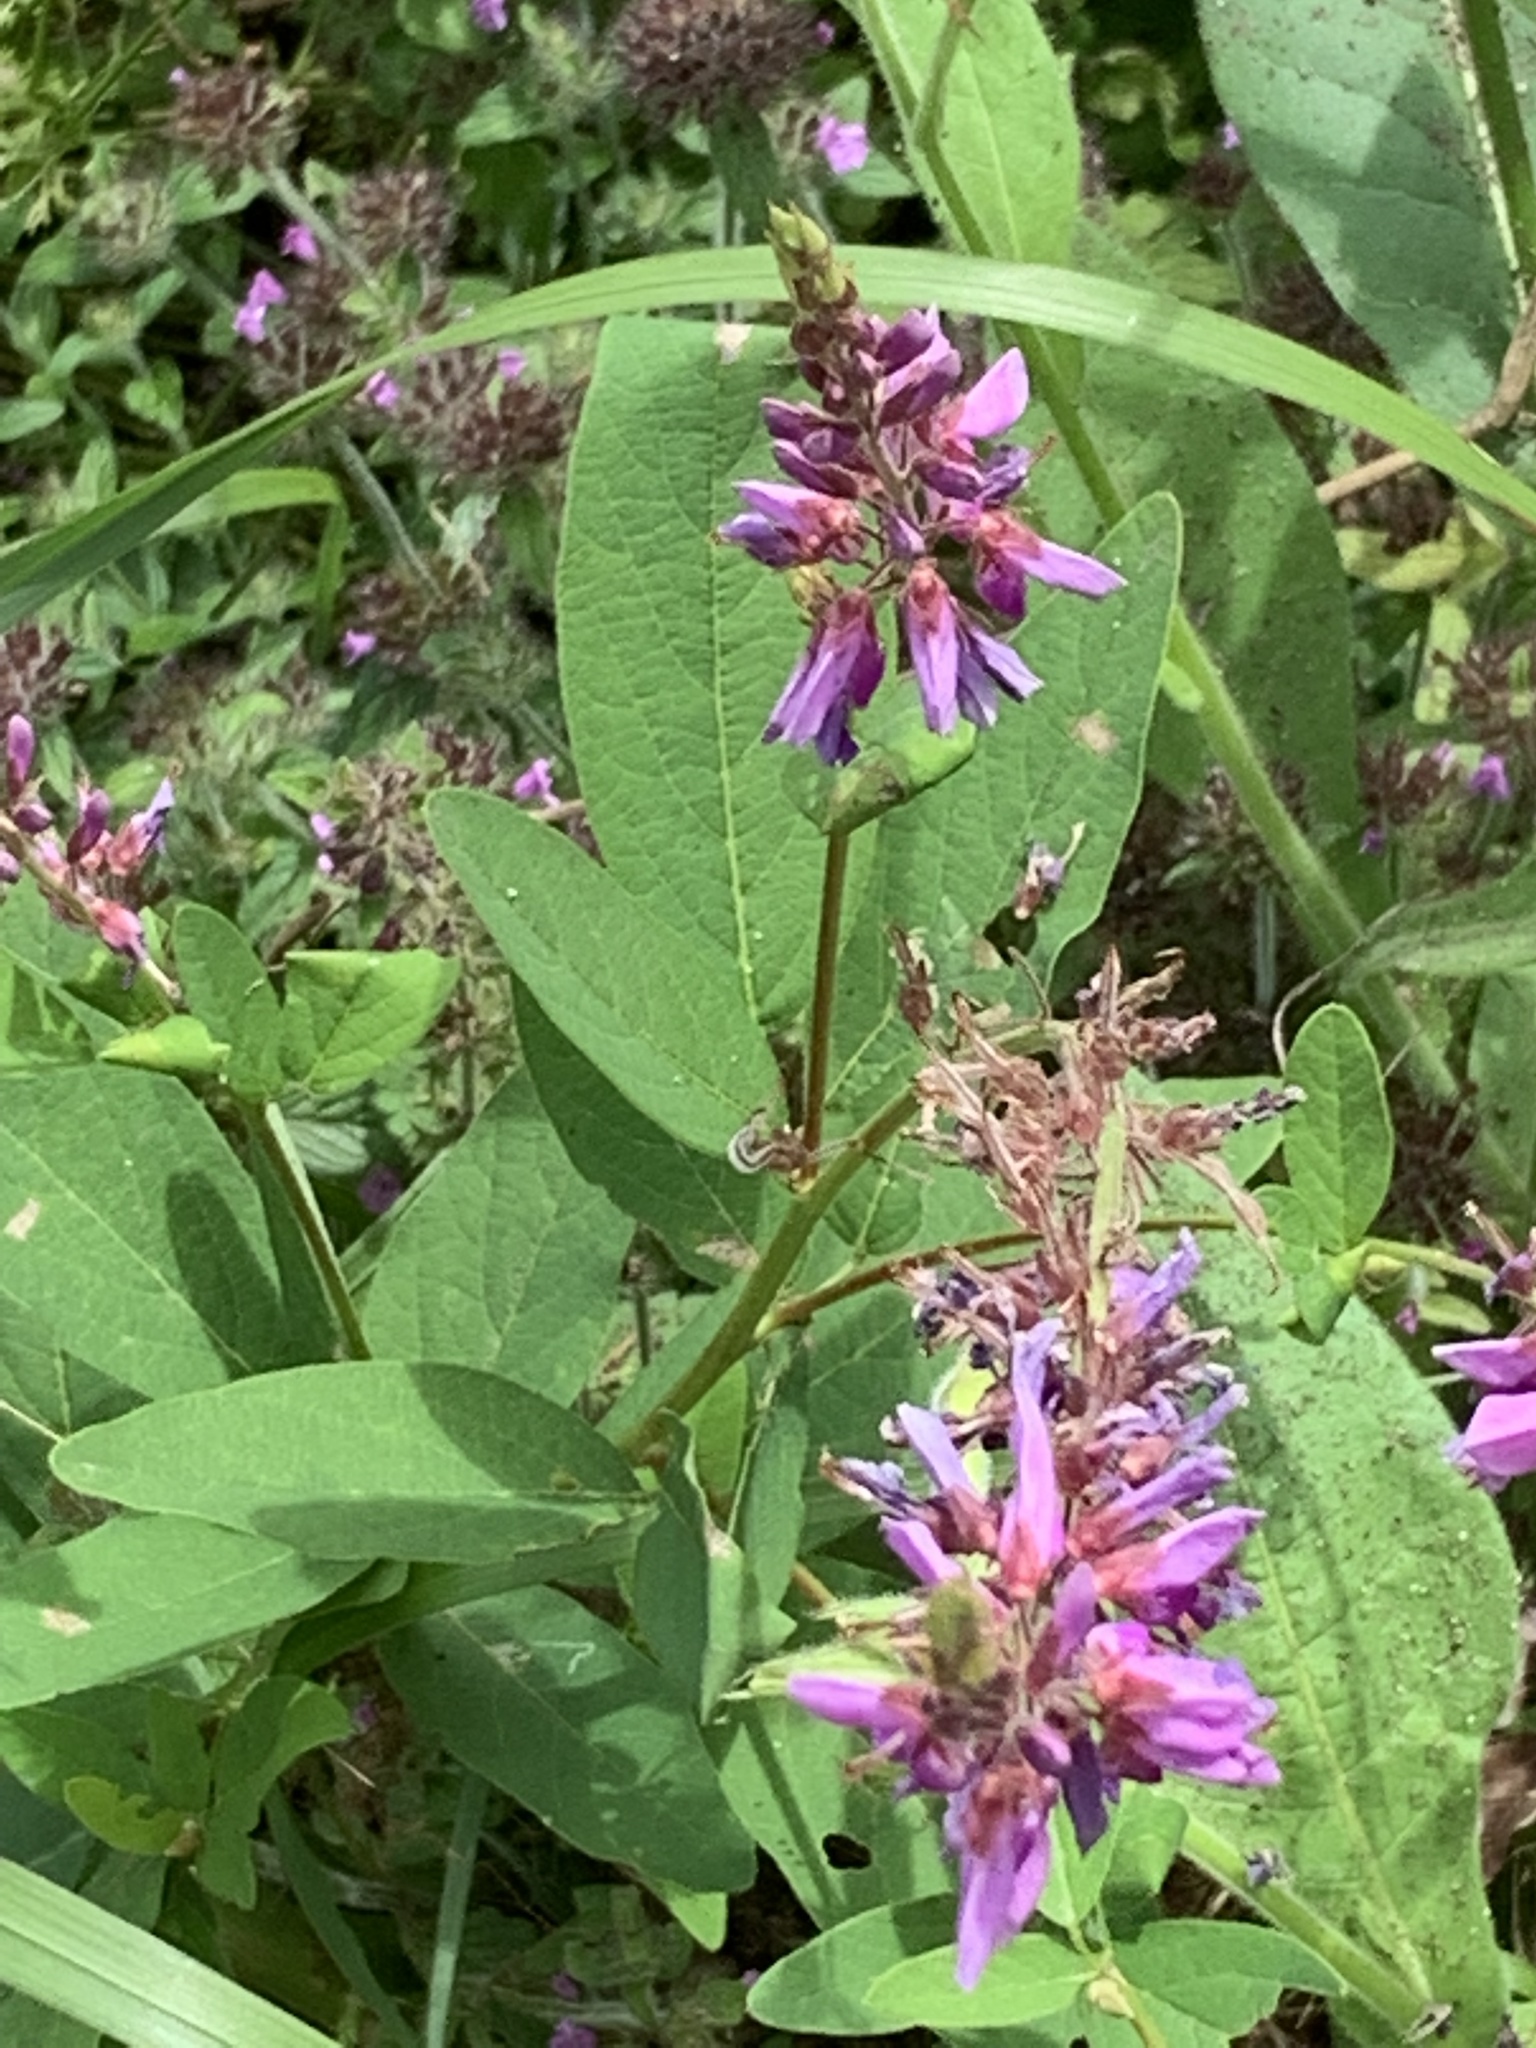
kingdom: Plantae
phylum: Tracheophyta
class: Magnoliopsida
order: Fabales
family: Fabaceae
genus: Desmodium
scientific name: Desmodium canadense
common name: Canada tick-trefoil
